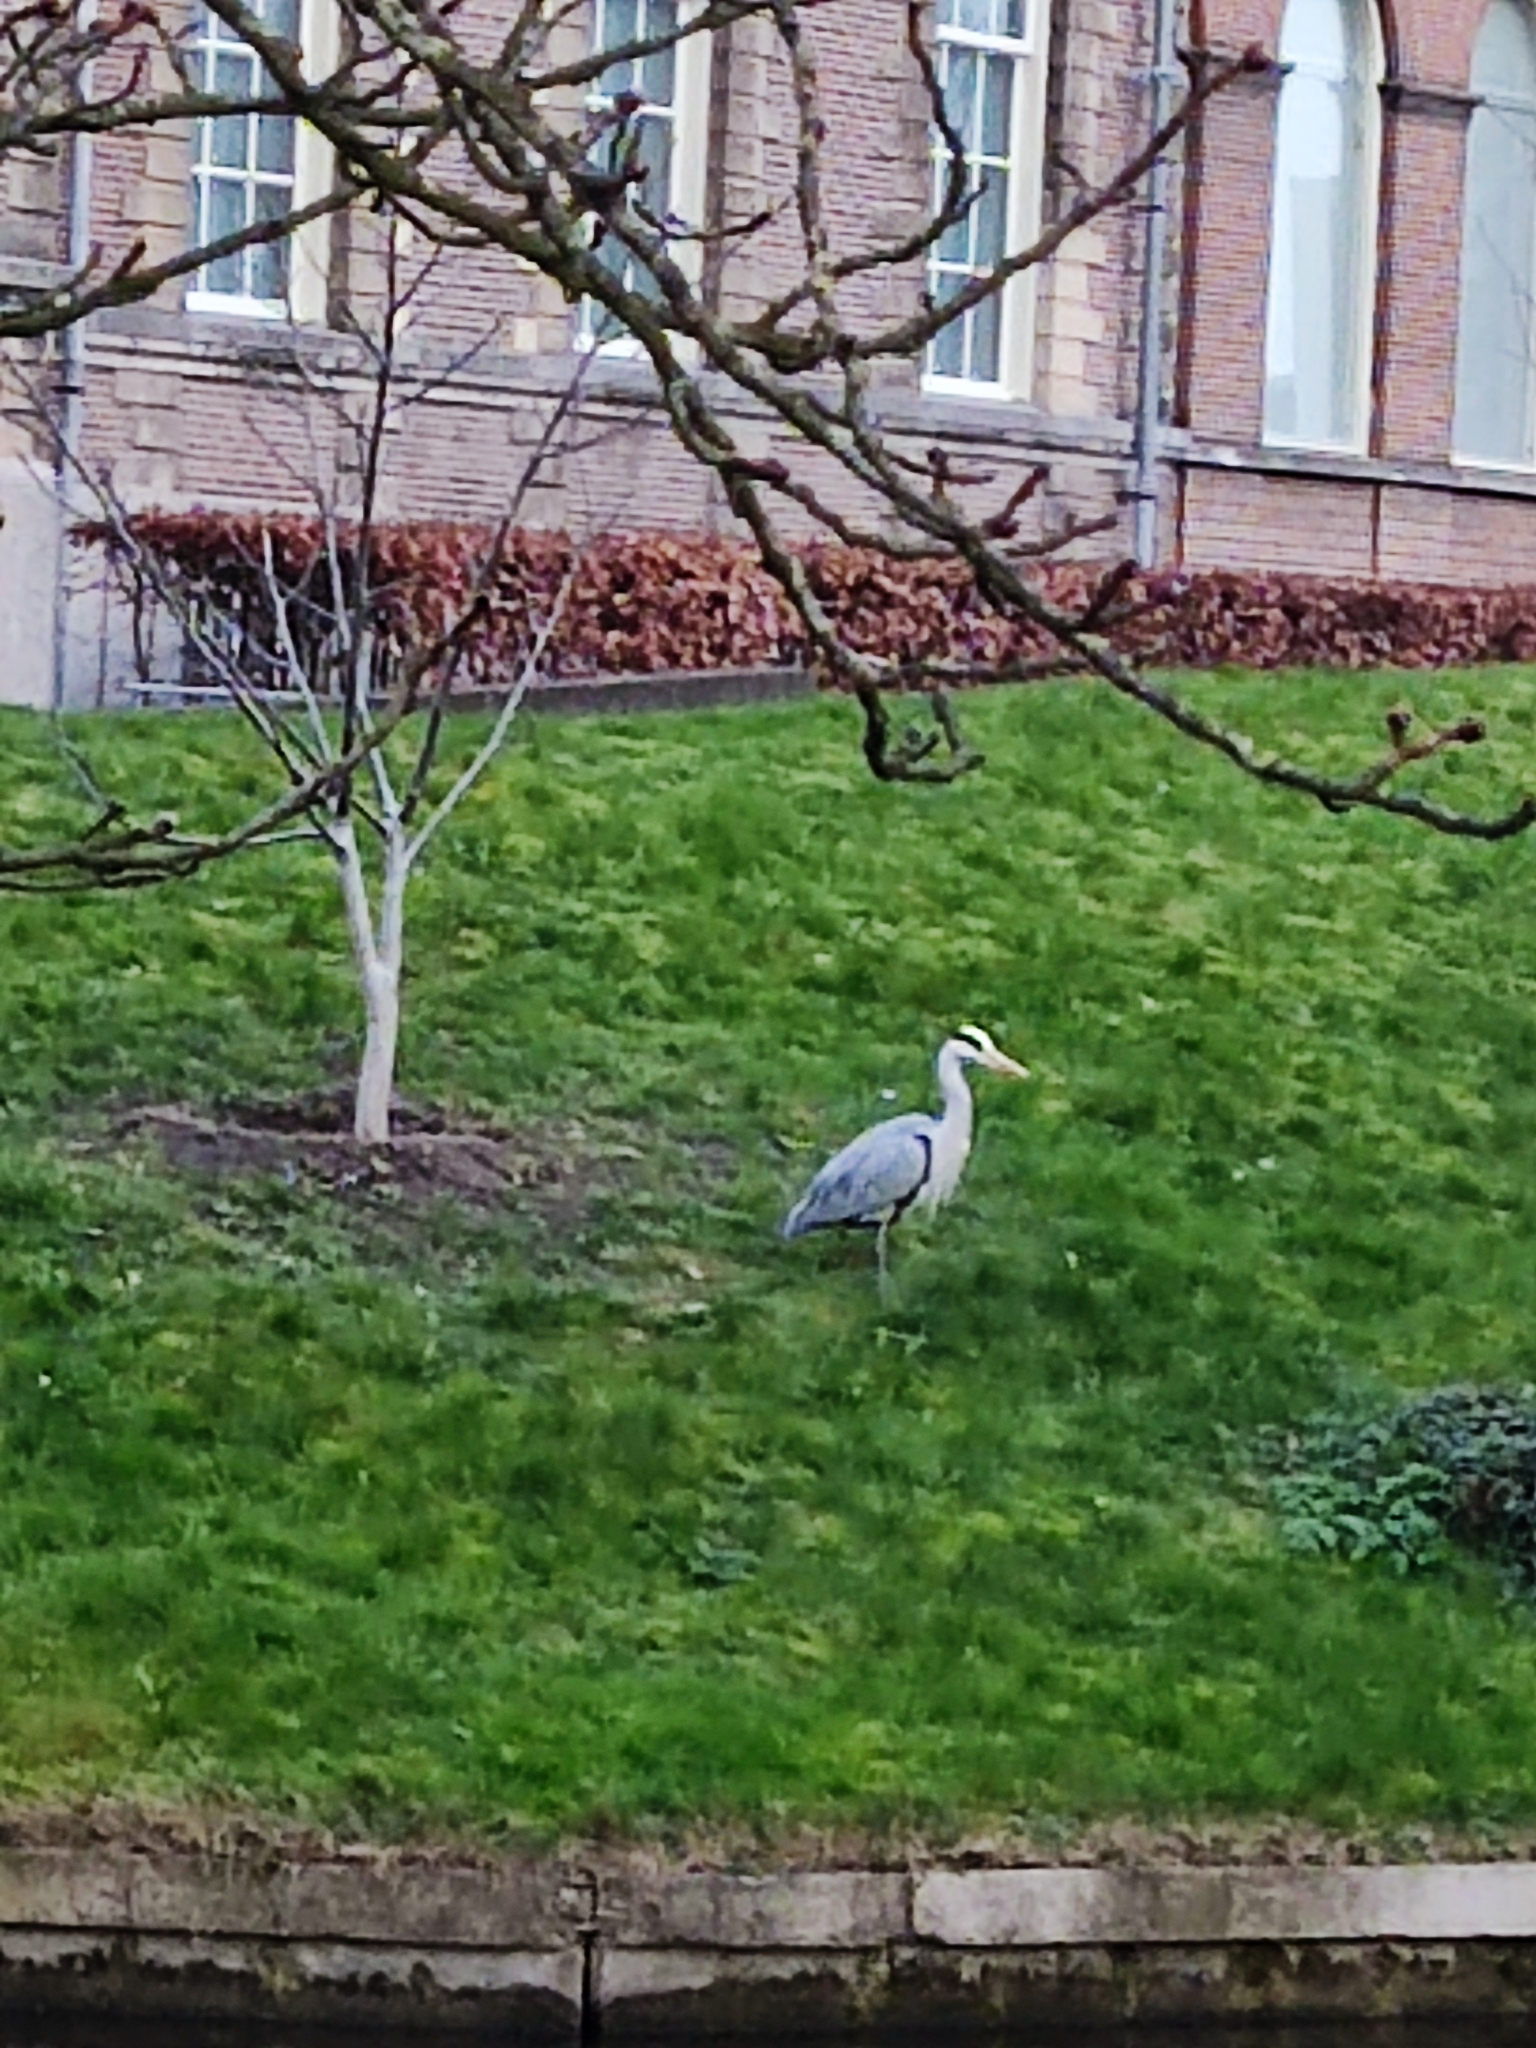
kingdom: Animalia
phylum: Chordata
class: Aves
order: Pelecaniformes
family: Ardeidae
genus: Ardea
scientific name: Ardea cinerea
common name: Grey heron
